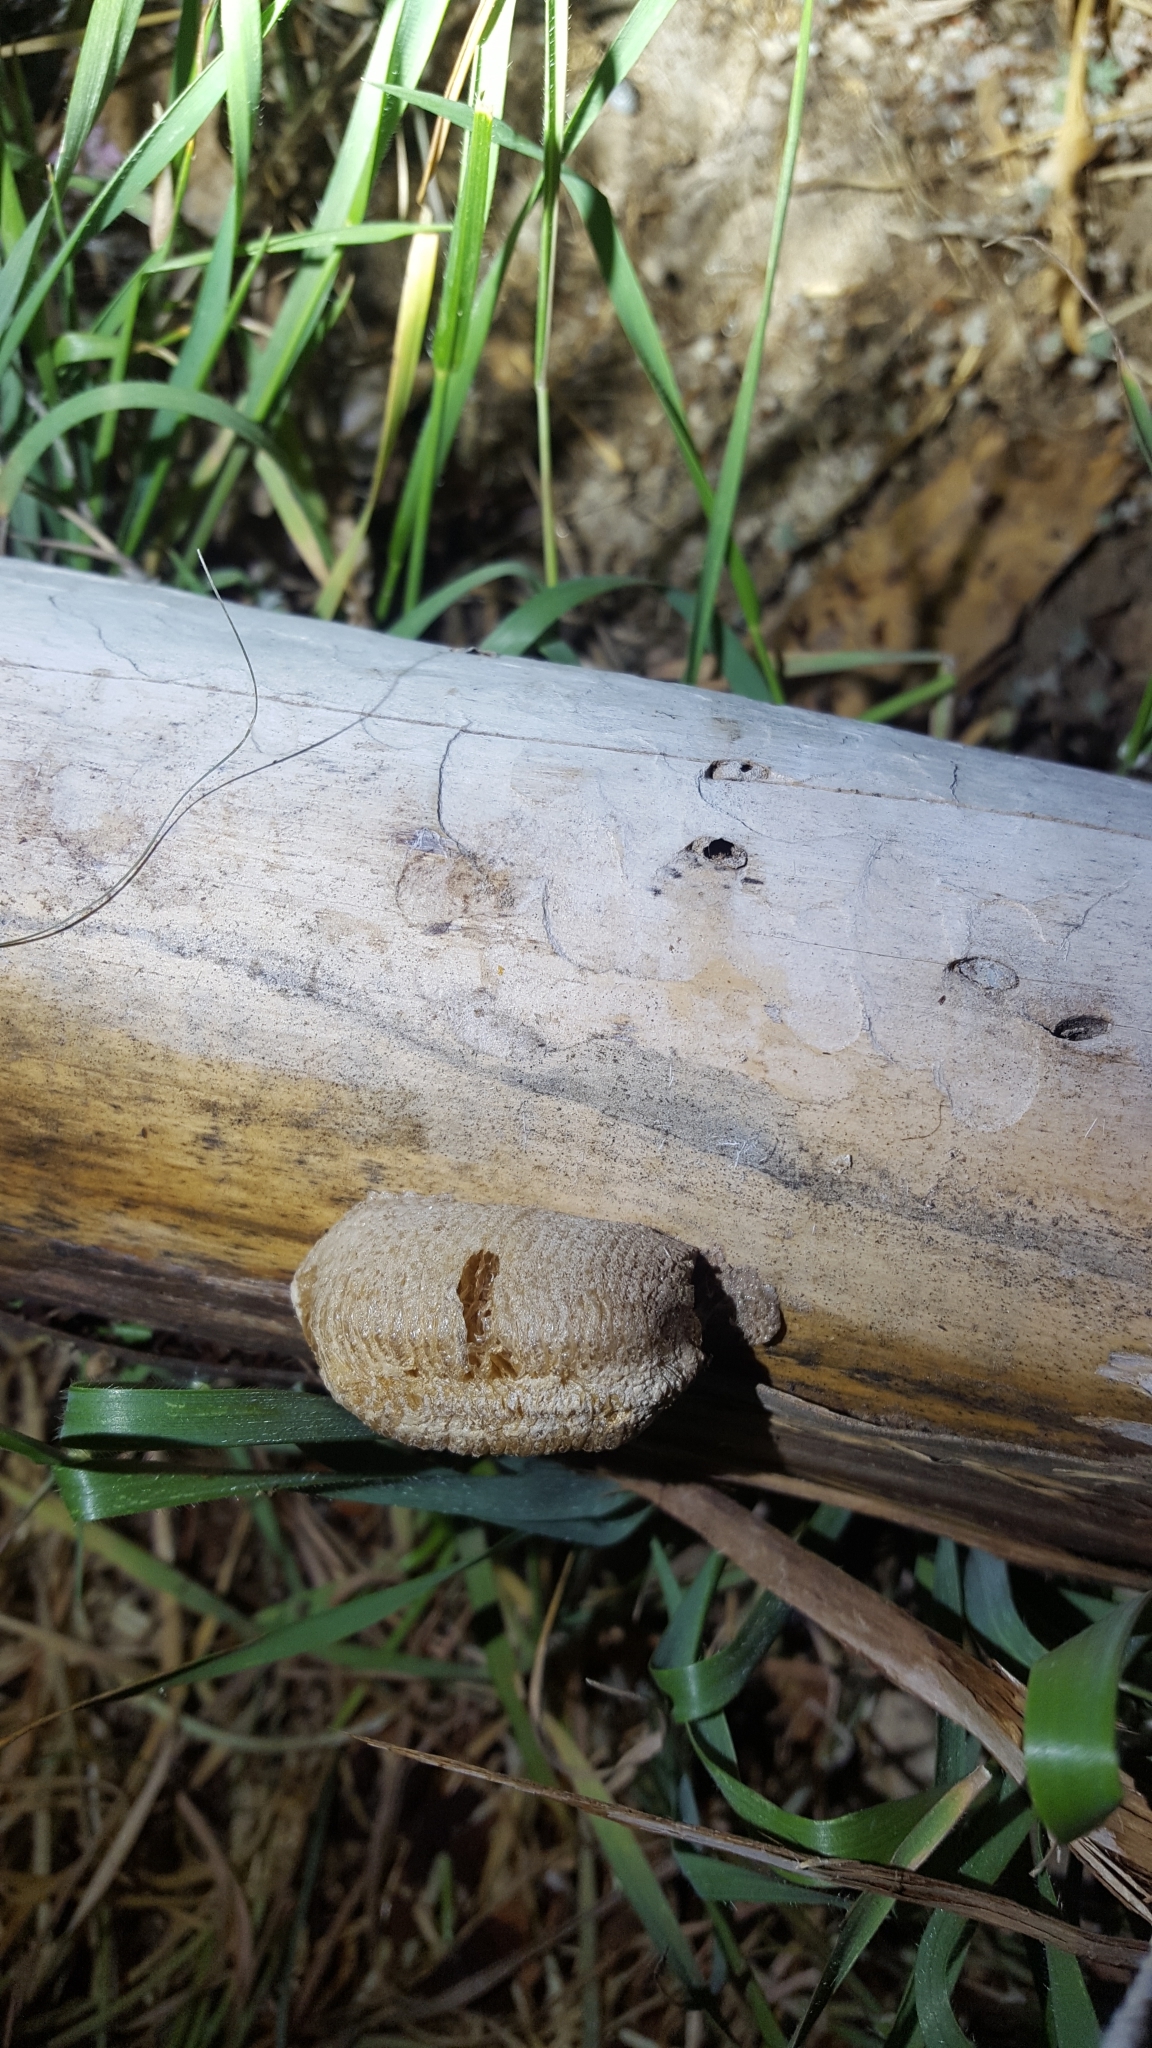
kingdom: Animalia
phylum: Arthropoda
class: Insecta
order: Mantodea
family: Mantidae
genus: Mantis
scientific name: Mantis religiosa
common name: Praying mantis
